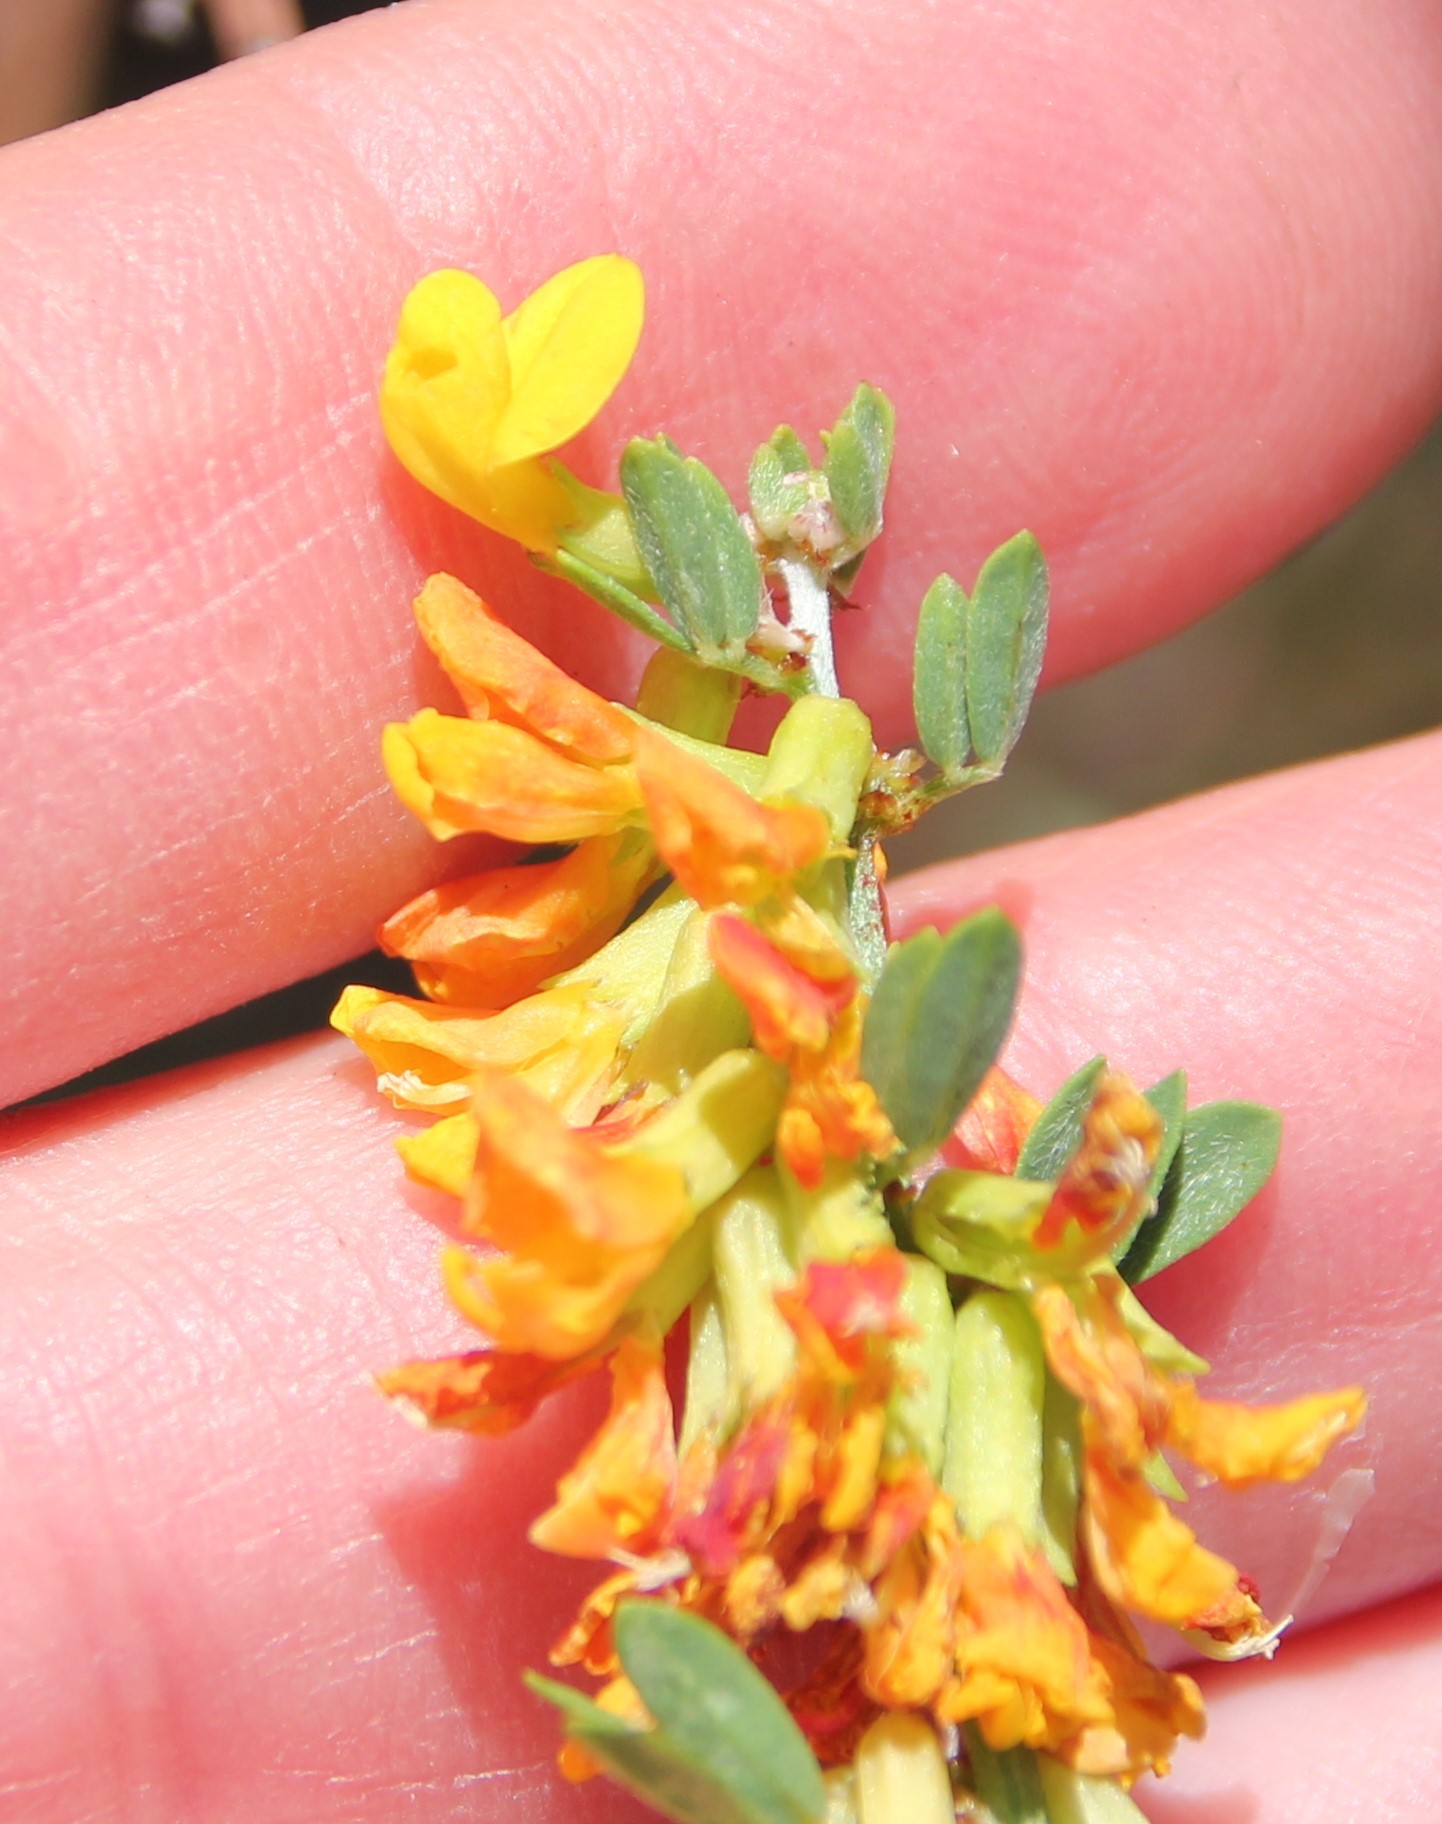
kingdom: Plantae
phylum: Tracheophyta
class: Magnoliopsida
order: Fabales
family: Fabaceae
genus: Acmispon
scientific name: Acmispon glaber
